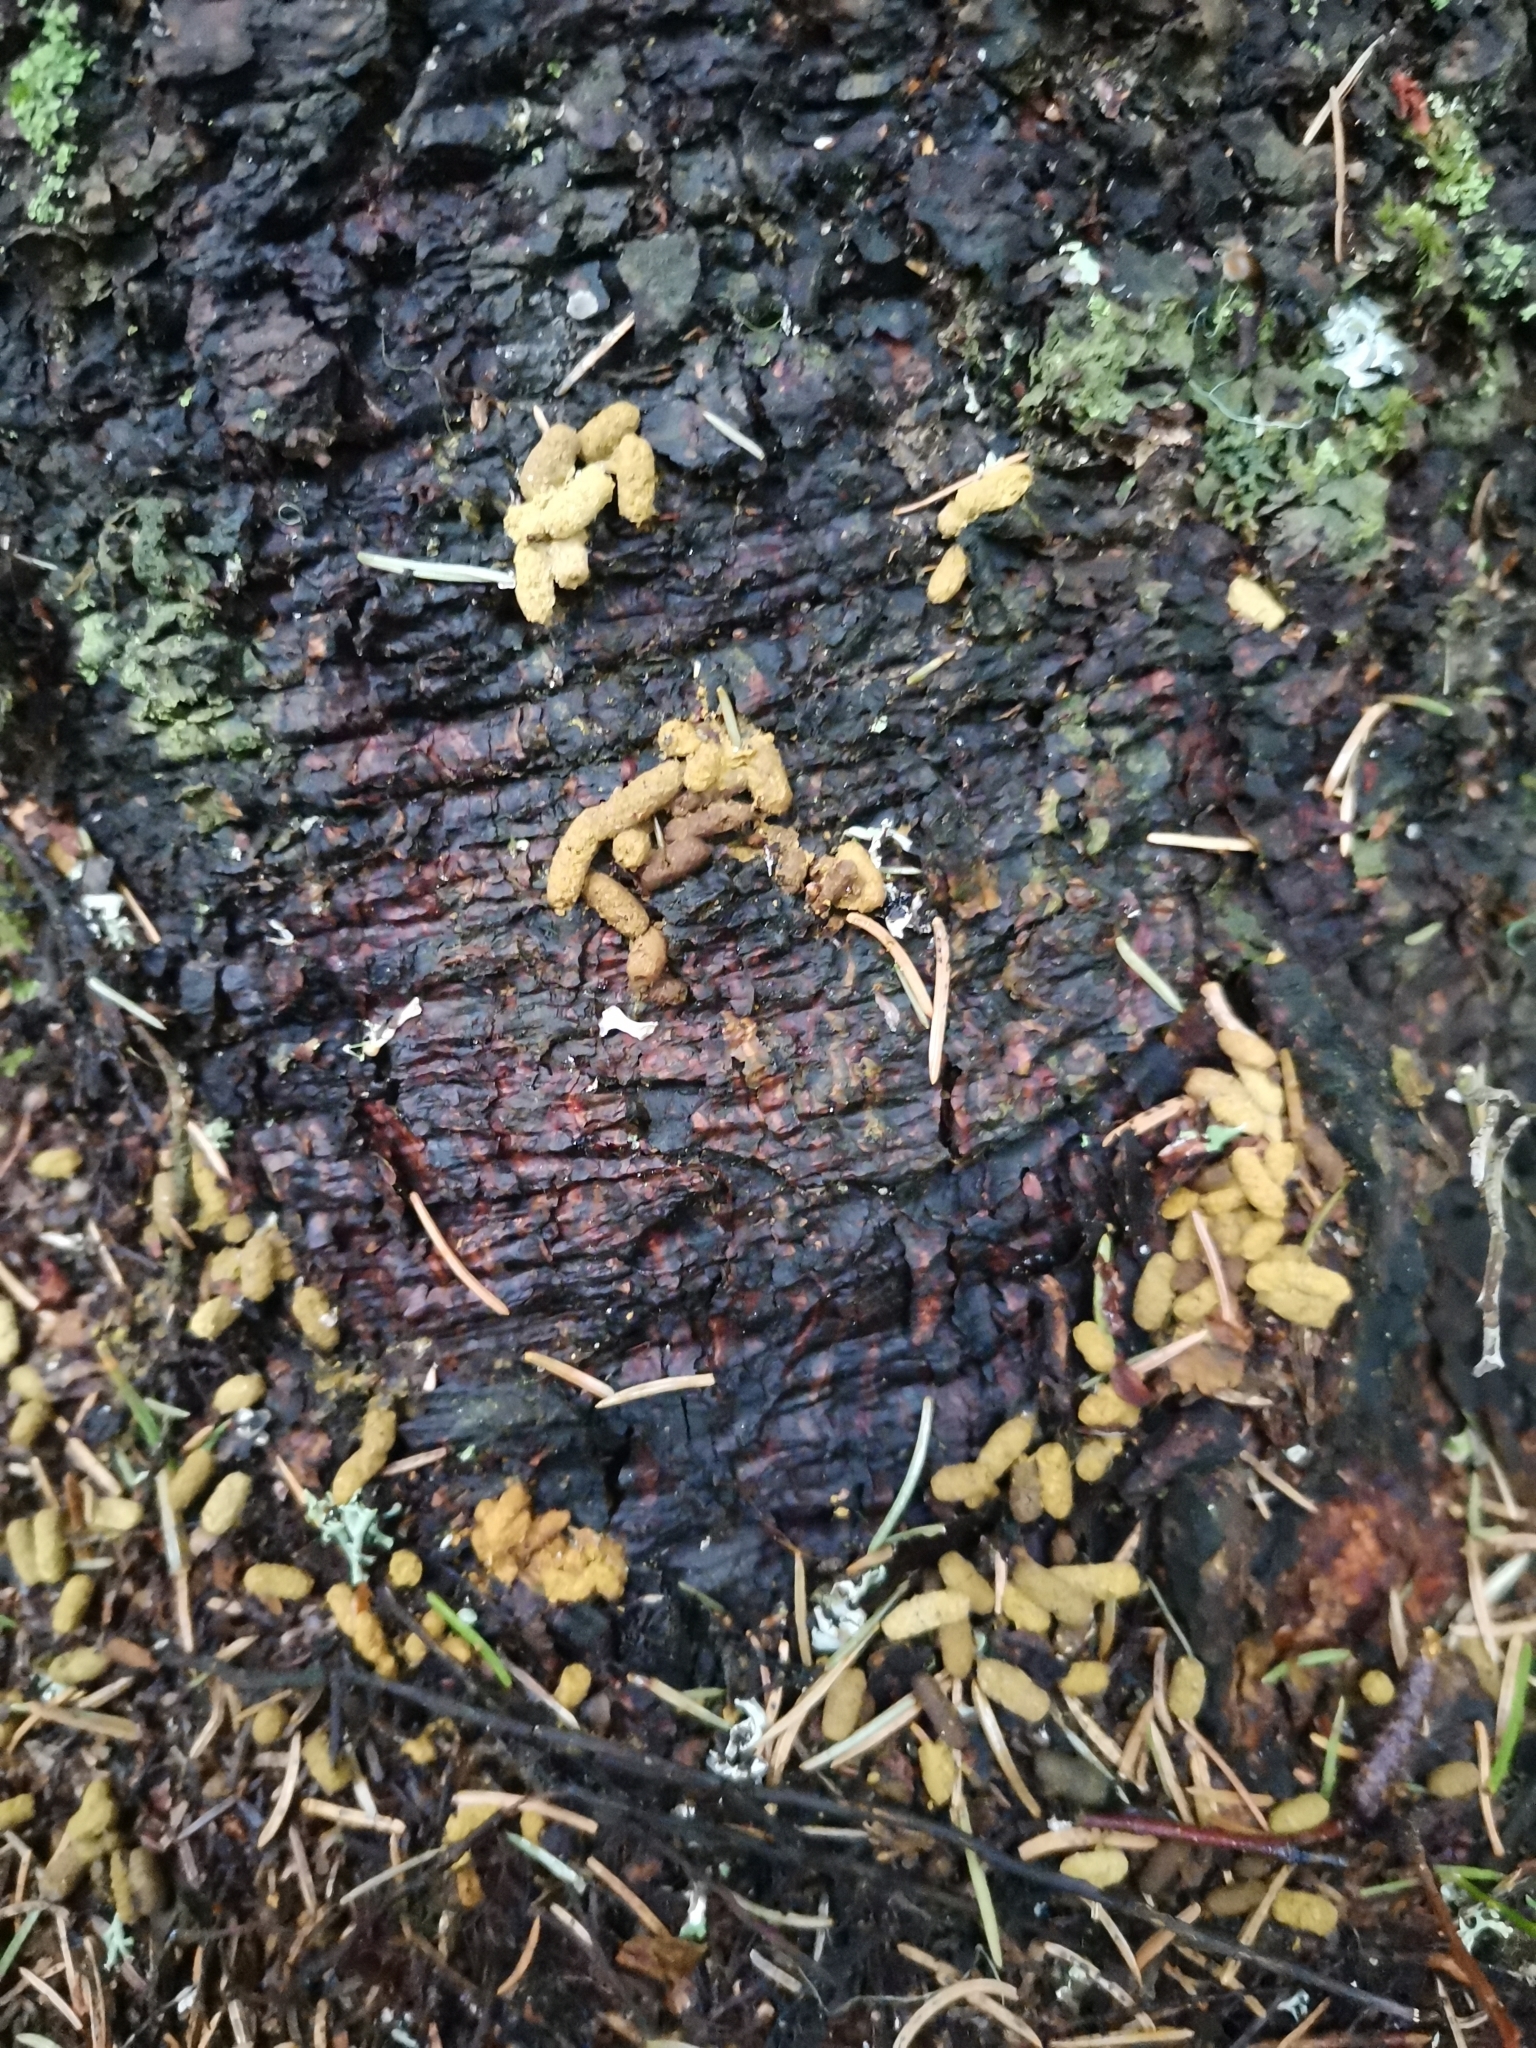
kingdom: Animalia
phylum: Chordata
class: Mammalia
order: Rodentia
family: Sciuridae
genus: Pteromys
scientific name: Pteromys volans
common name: Siberian flying squirrel
